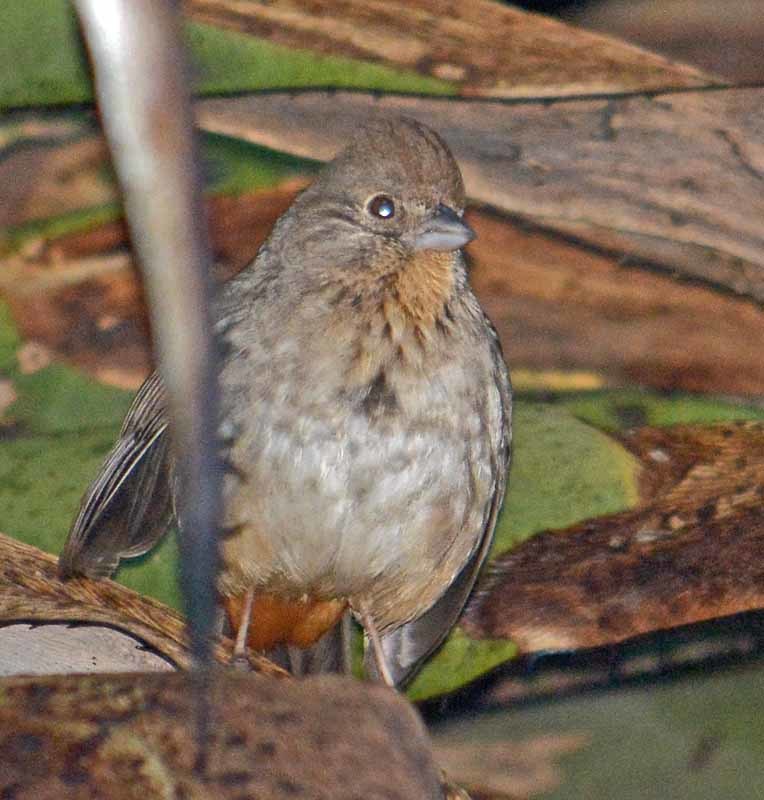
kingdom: Animalia
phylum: Chordata
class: Aves
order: Passeriformes
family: Passerellidae
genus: Melozone
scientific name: Melozone fusca
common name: Canyon towhee
